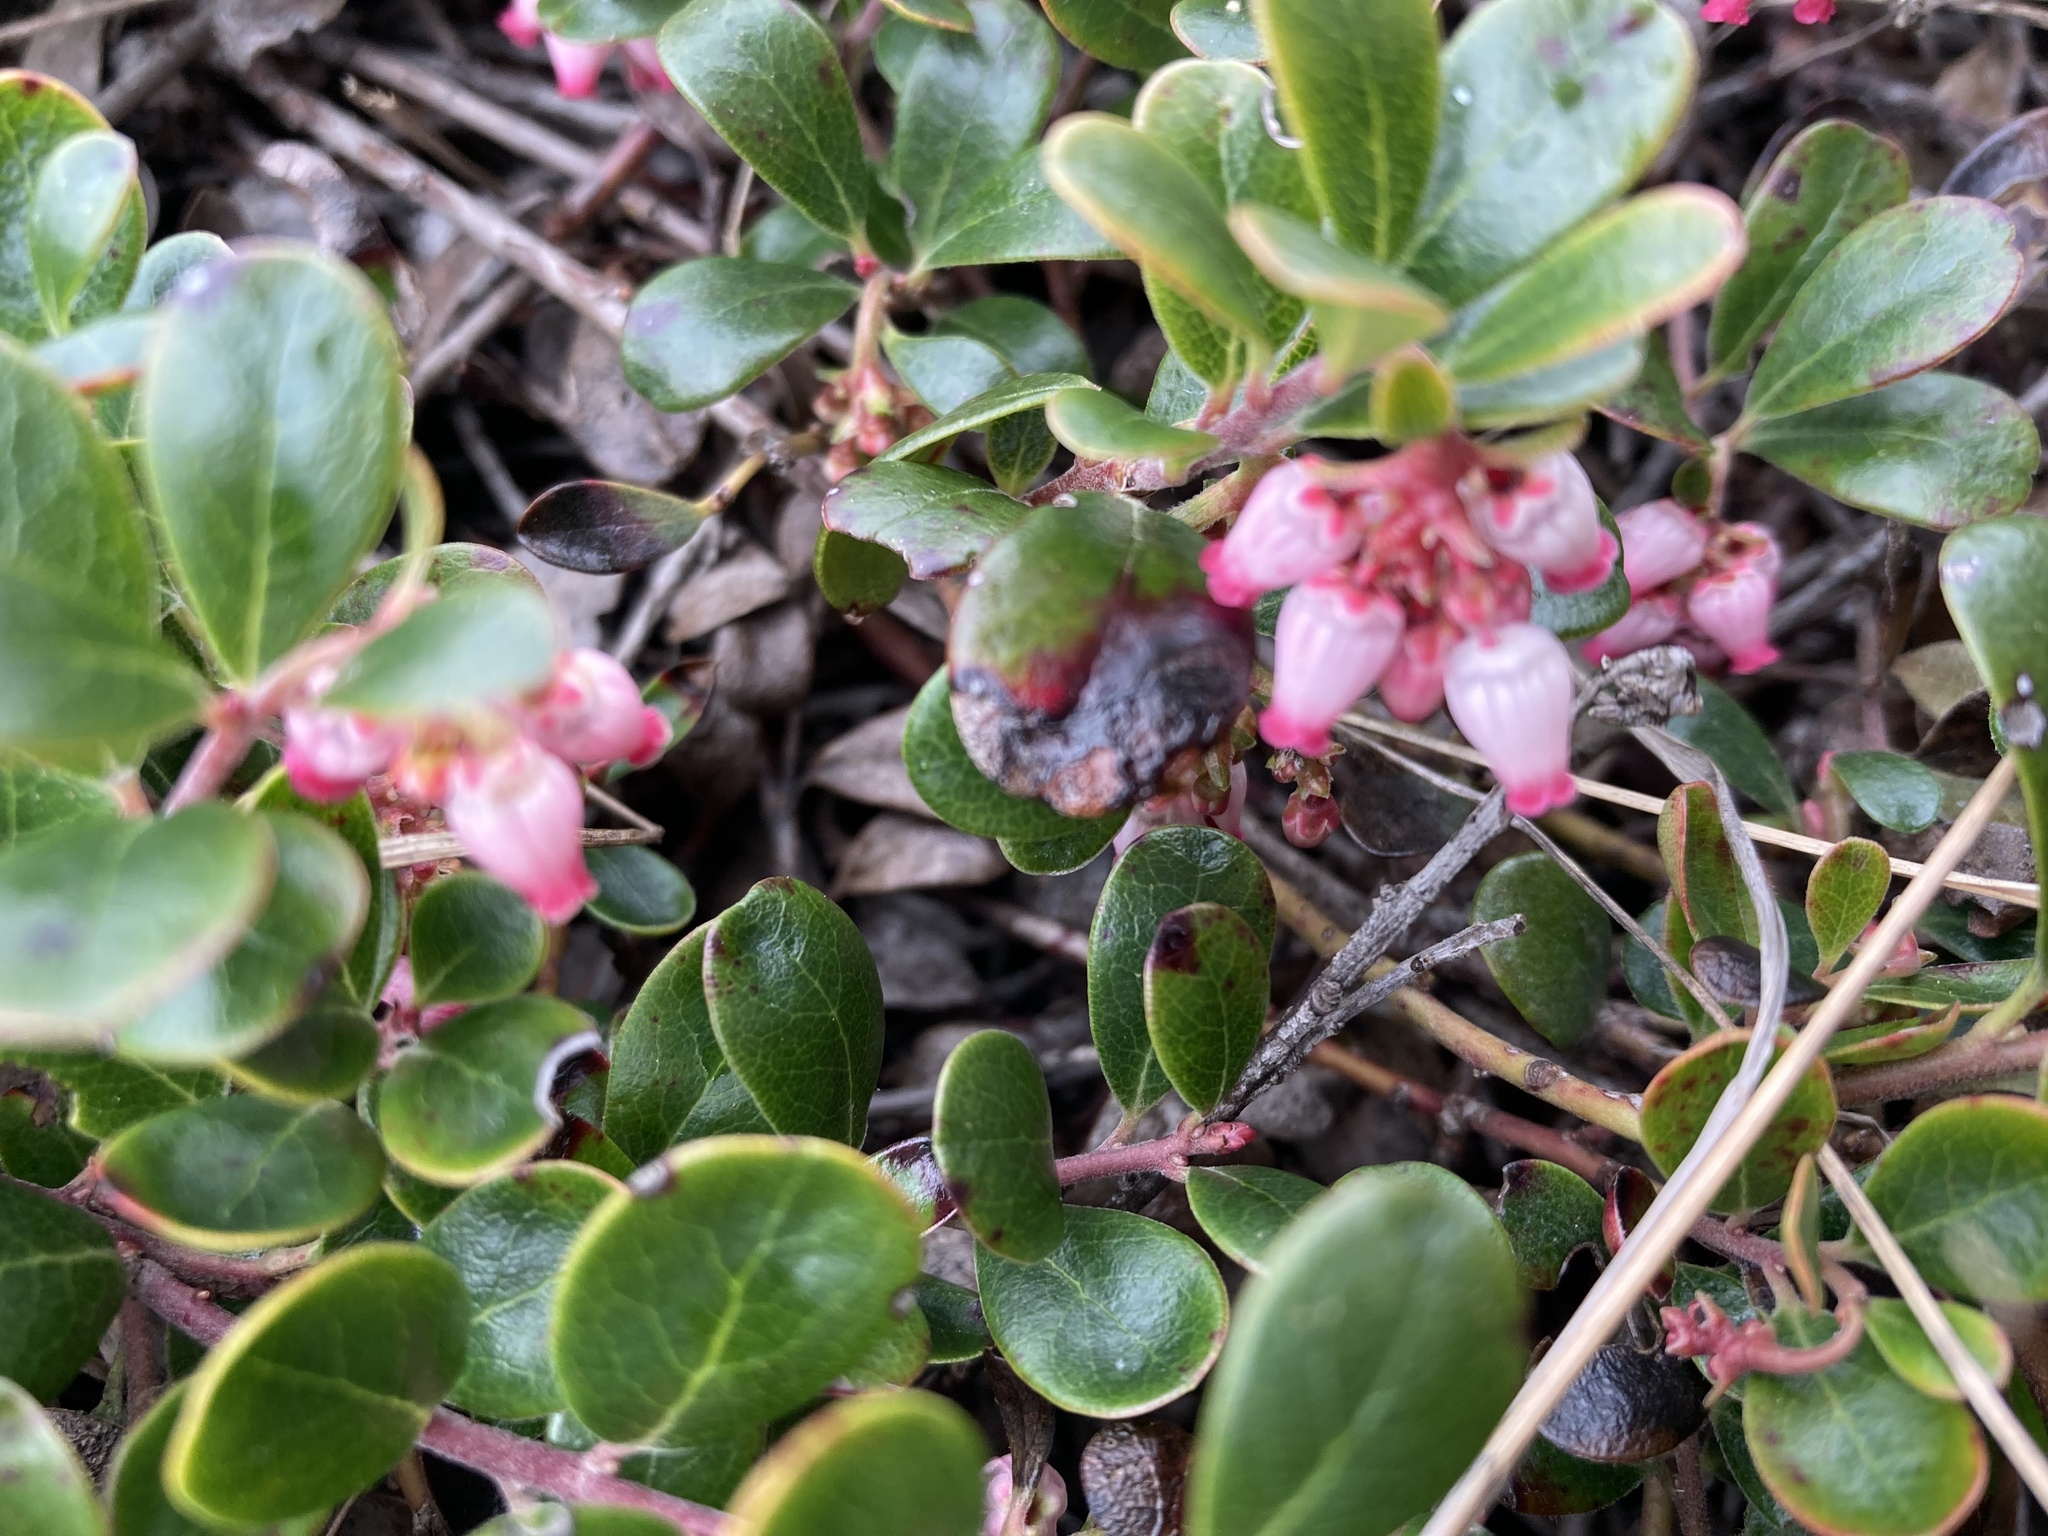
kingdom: Plantae
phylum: Tracheophyta
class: Magnoliopsida
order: Ericales
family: Ericaceae
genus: Arctostaphylos
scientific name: Arctostaphylos uva-ursi
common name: Bearberry
